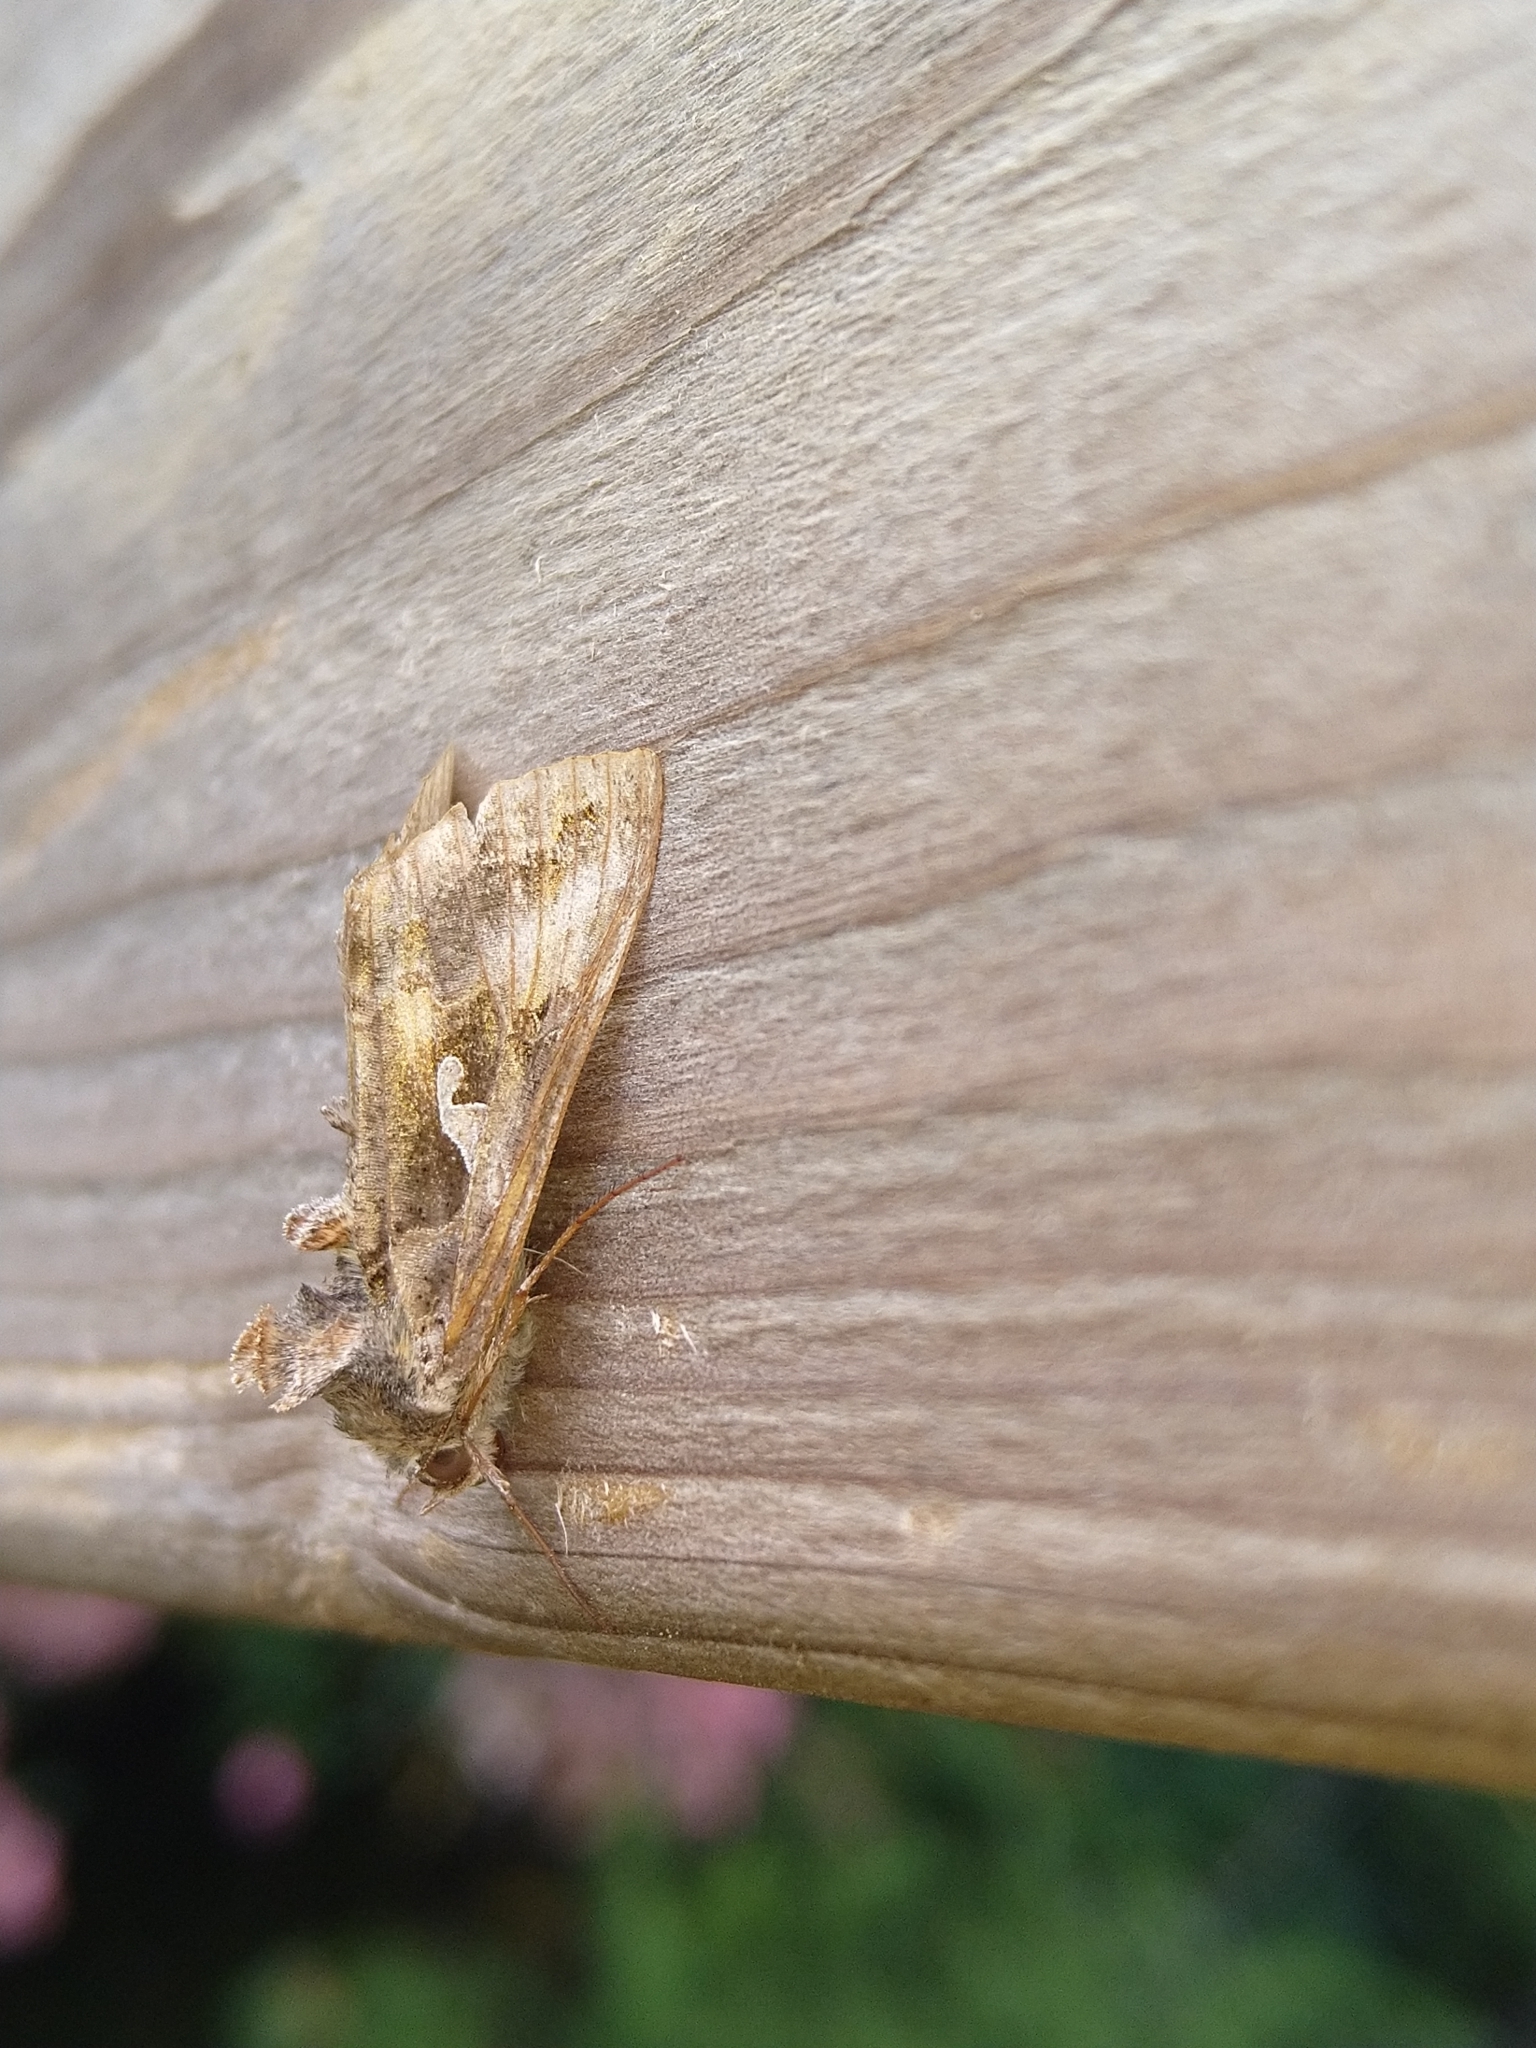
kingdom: Animalia
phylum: Arthropoda
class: Insecta
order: Lepidoptera
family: Noctuidae
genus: Autographa
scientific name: Autographa gamma
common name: Silver y
